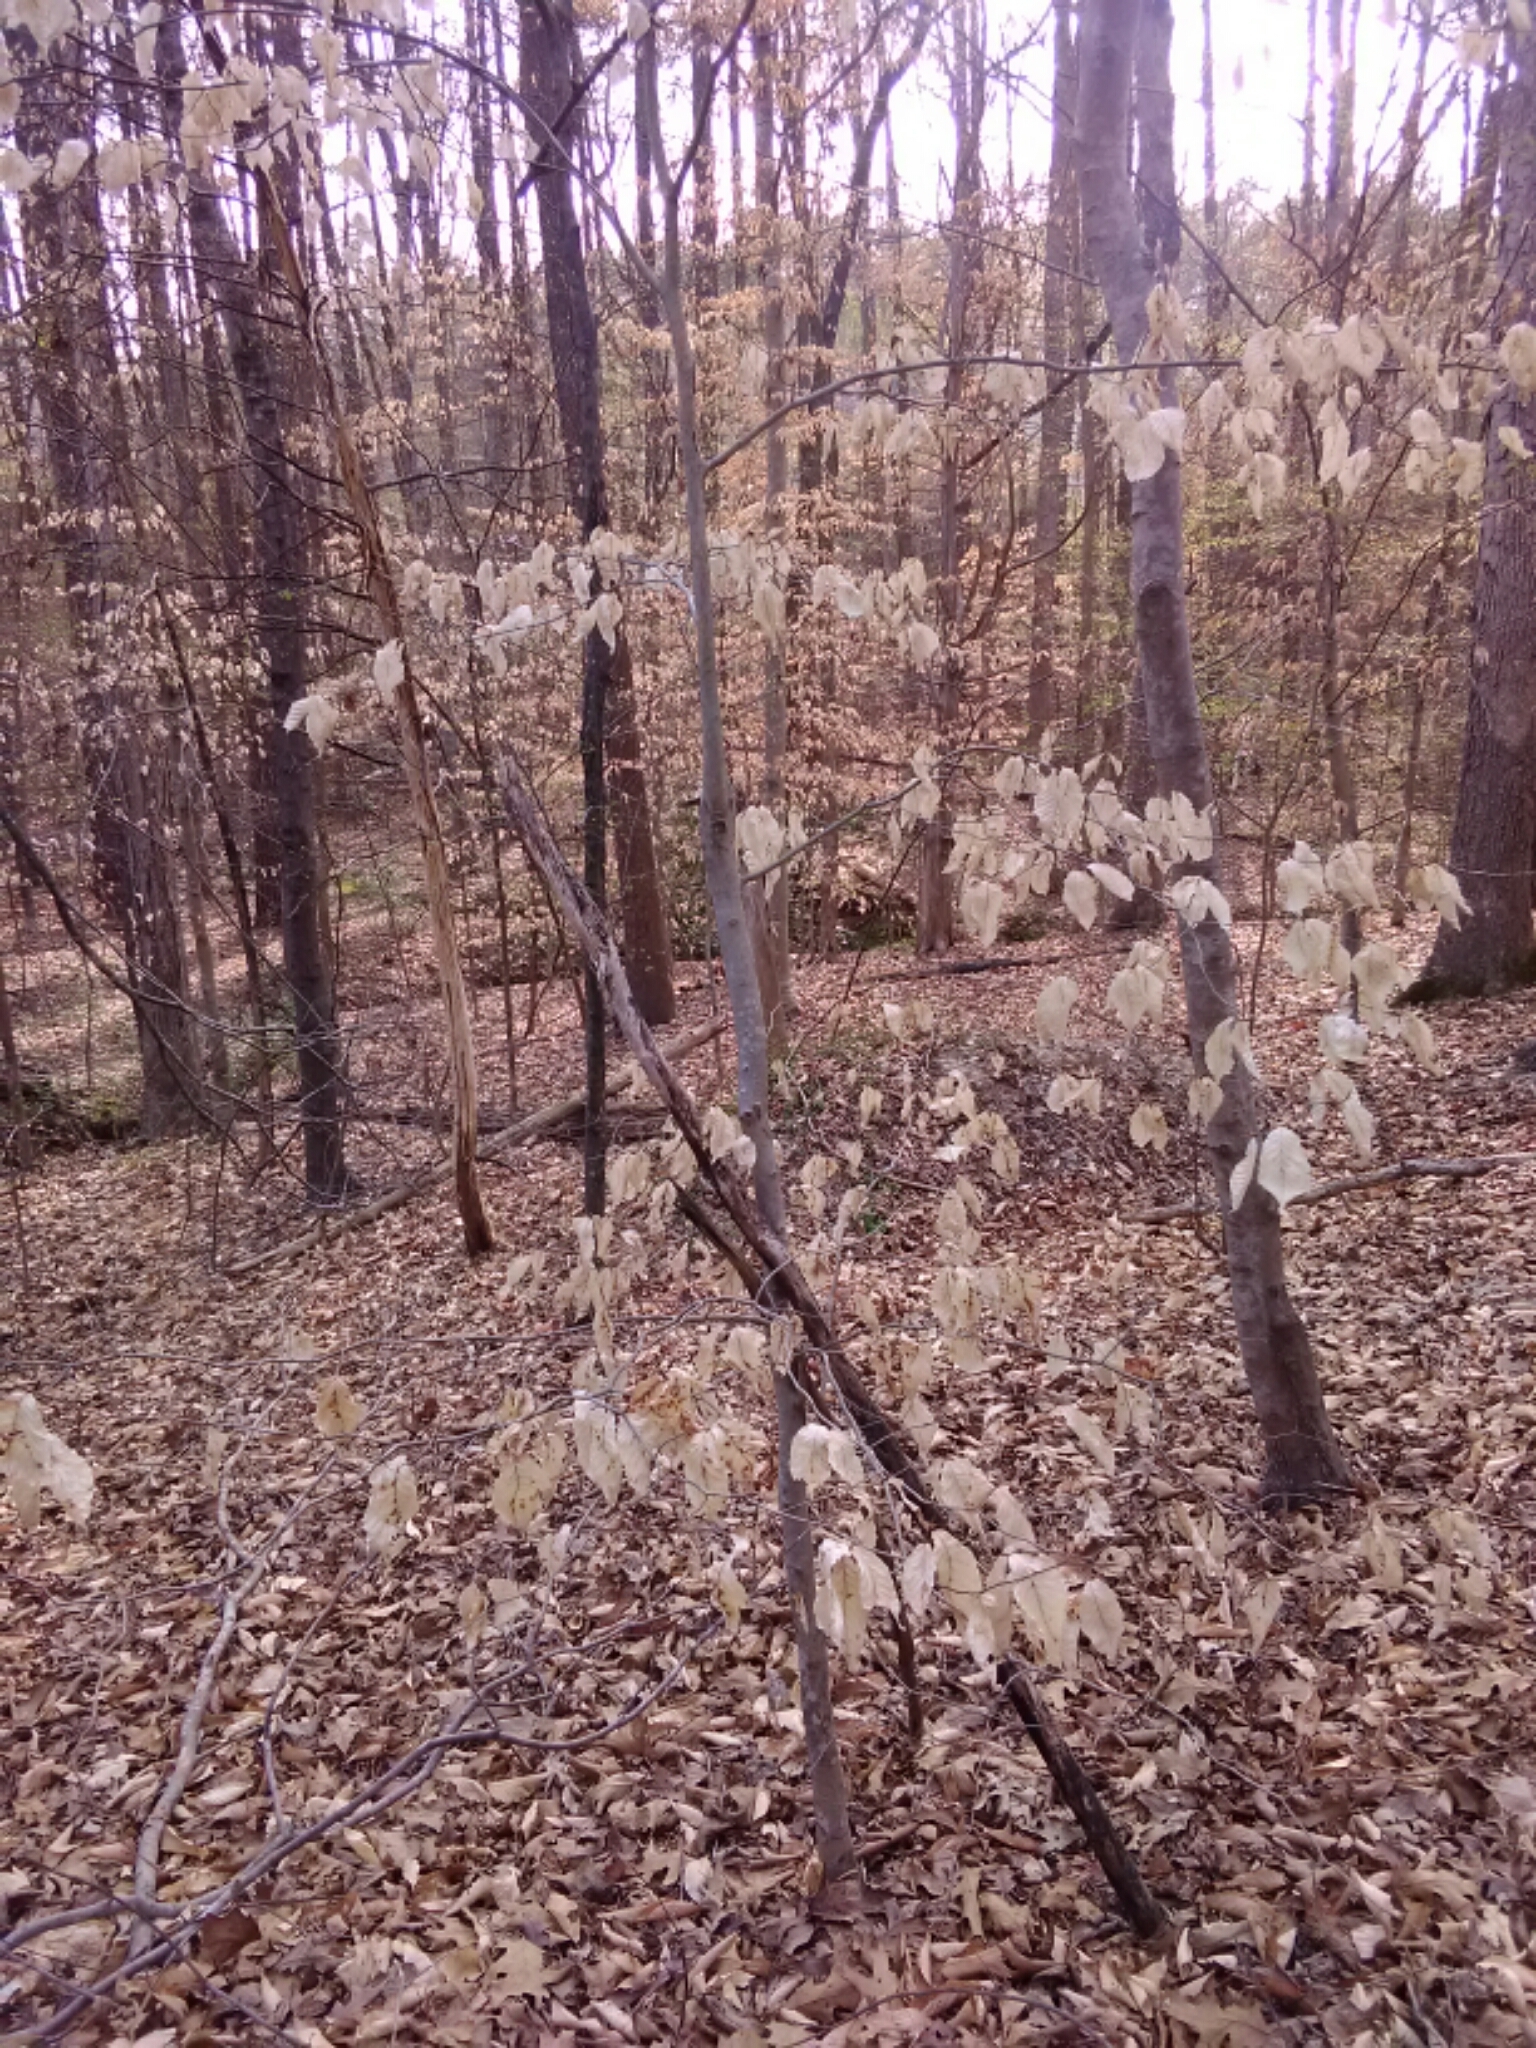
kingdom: Plantae
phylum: Tracheophyta
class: Magnoliopsida
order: Fagales
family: Fagaceae
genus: Fagus
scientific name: Fagus grandifolia
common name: American beech
